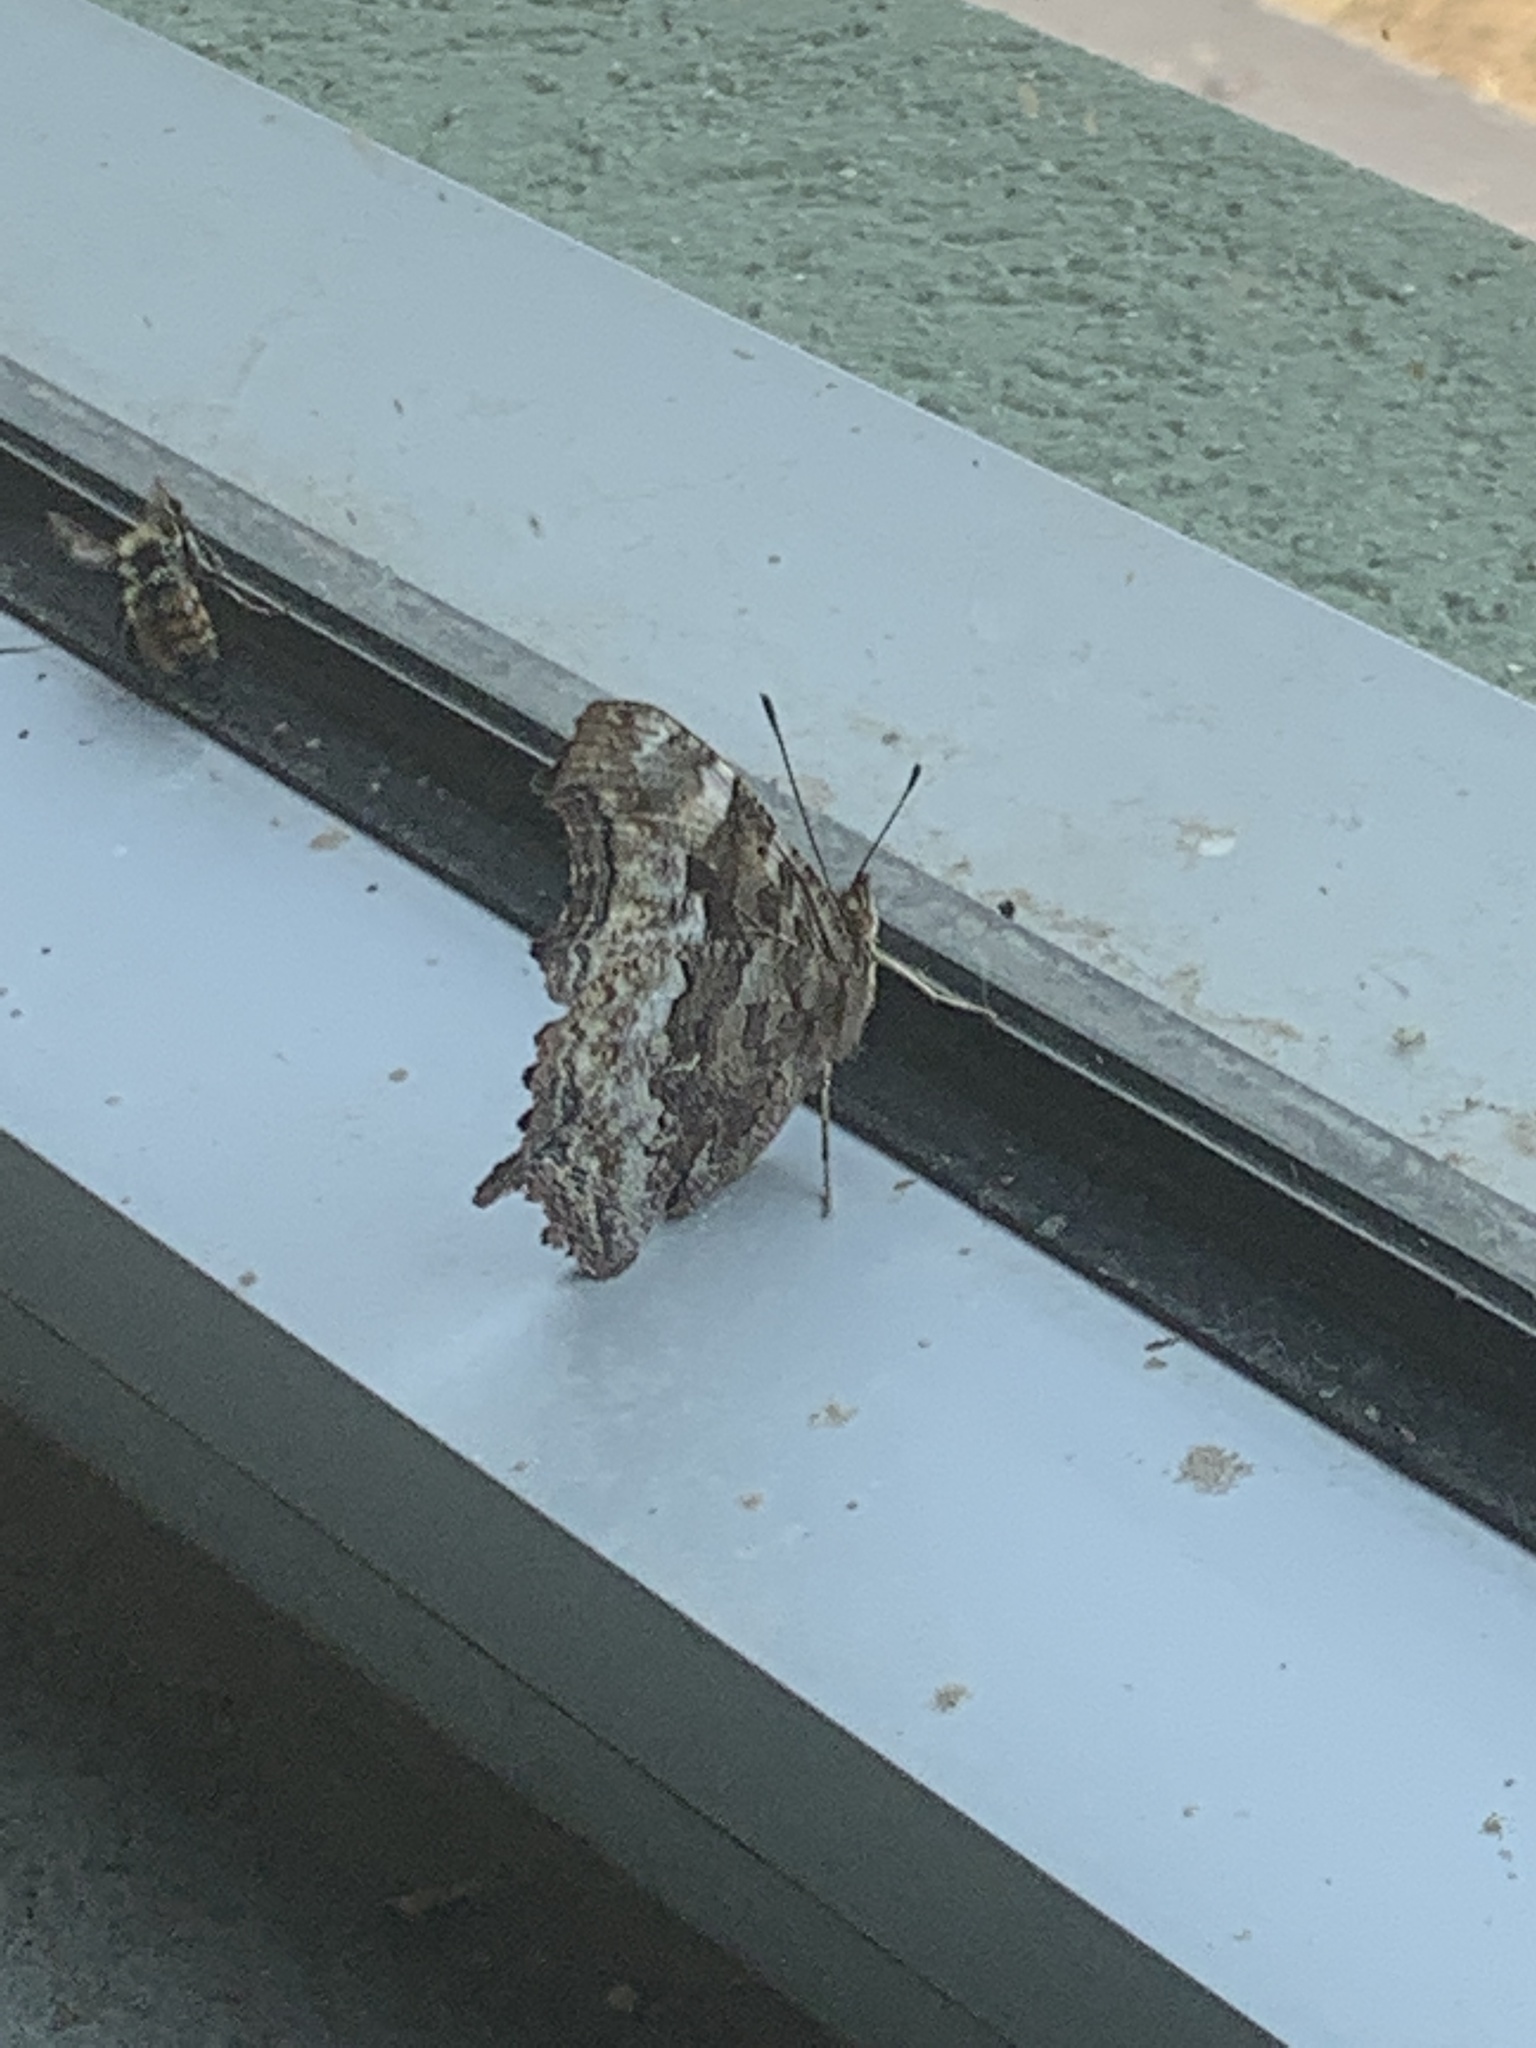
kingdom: Animalia
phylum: Arthropoda
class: Insecta
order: Lepidoptera
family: Nymphalidae
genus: Polygonia
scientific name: Polygonia vaualbum
